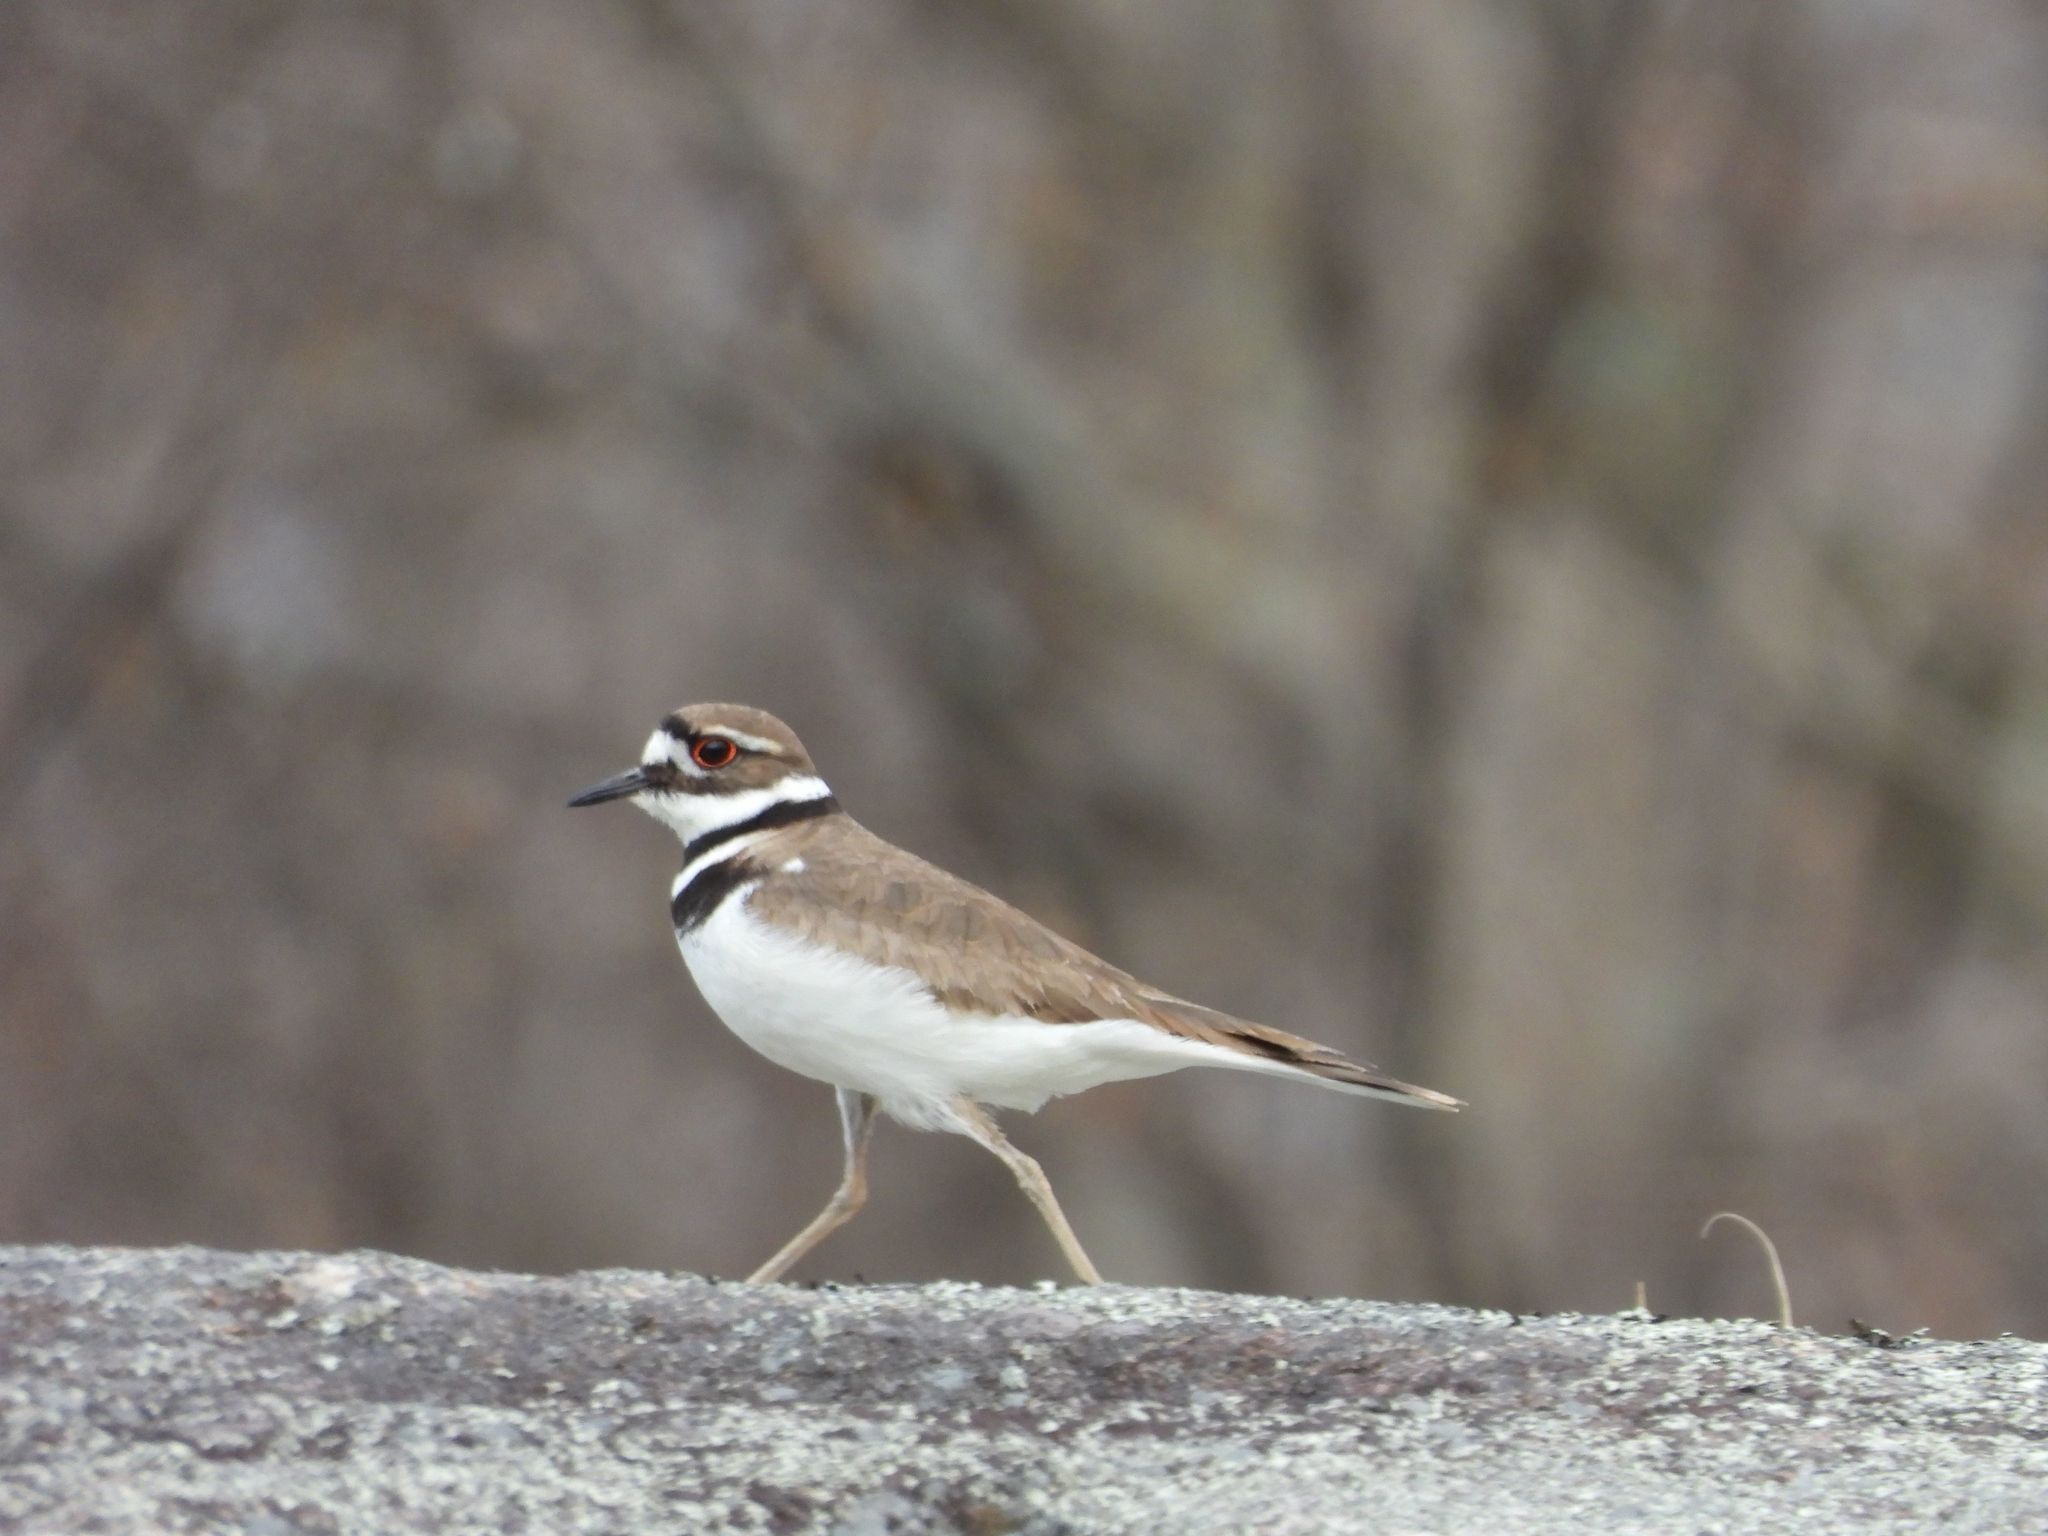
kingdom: Animalia
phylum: Chordata
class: Aves
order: Charadriiformes
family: Charadriidae
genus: Charadrius
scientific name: Charadrius vociferus
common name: Killdeer
